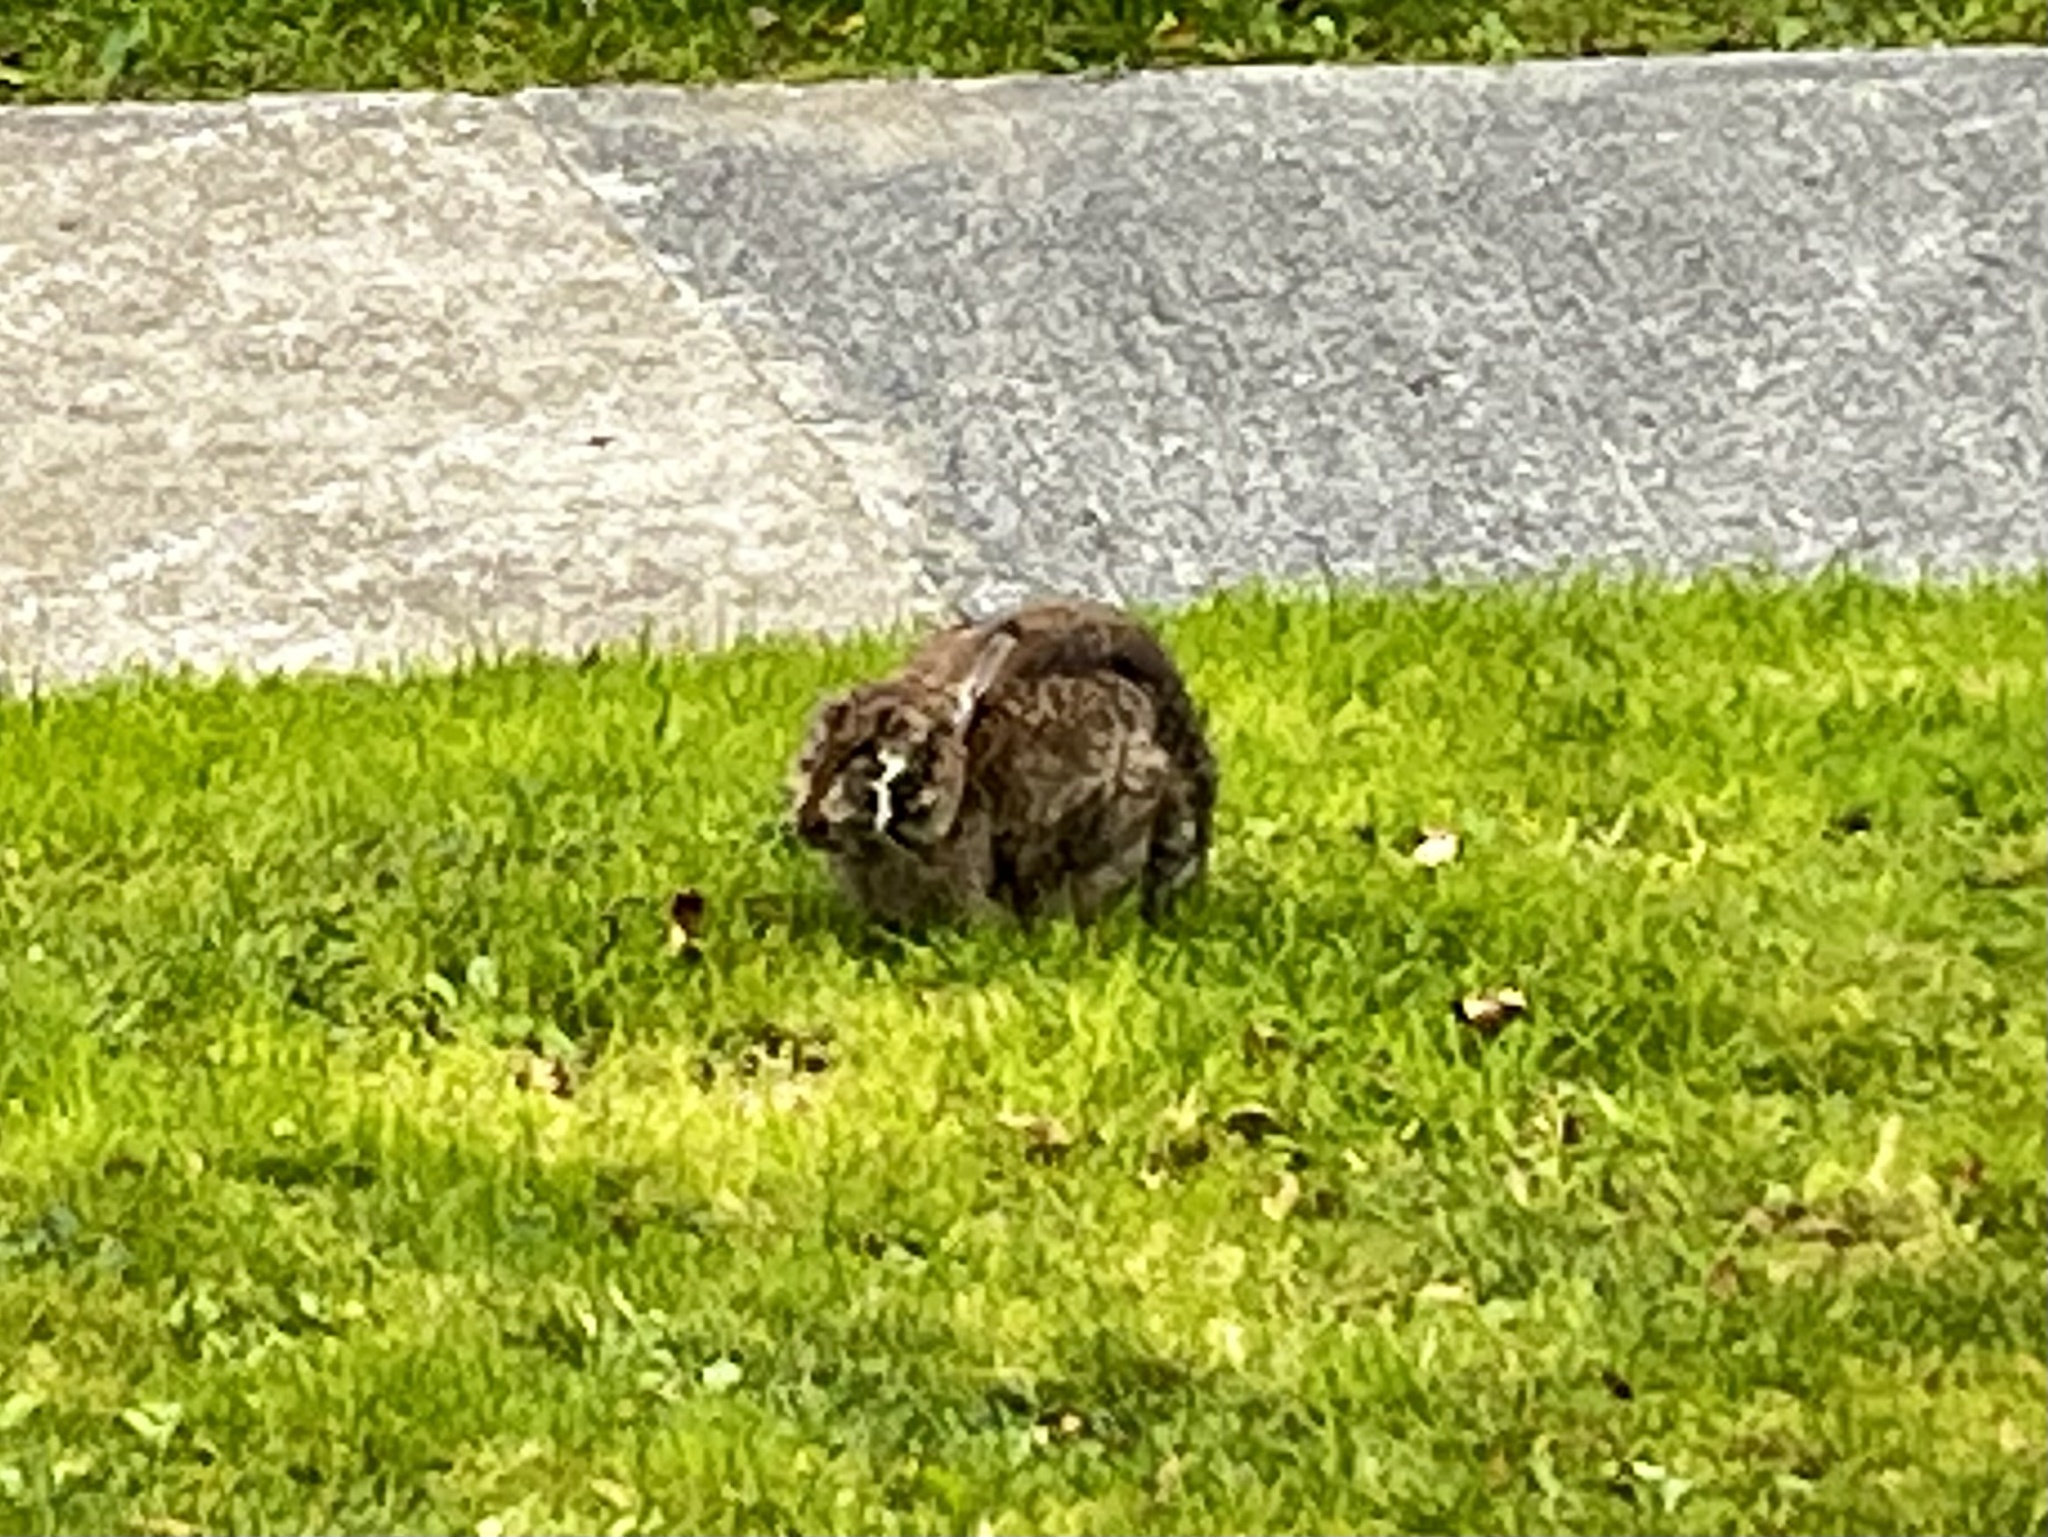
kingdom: Animalia
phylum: Chordata
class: Mammalia
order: Lagomorpha
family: Leporidae
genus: Oryctolagus
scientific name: Oryctolagus cuniculus
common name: European rabbit
